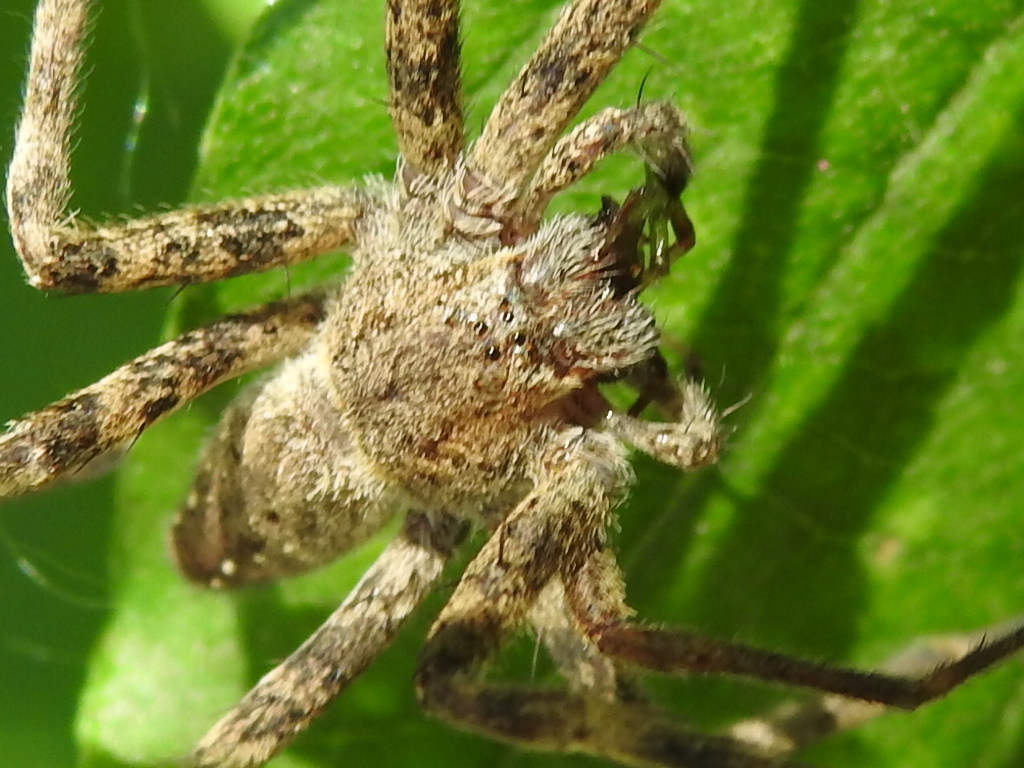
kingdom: Animalia
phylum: Arthropoda
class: Arachnida
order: Araneae
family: Pisauridae
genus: Pisaurina
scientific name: Pisaurina mira
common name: American nursery web spider
